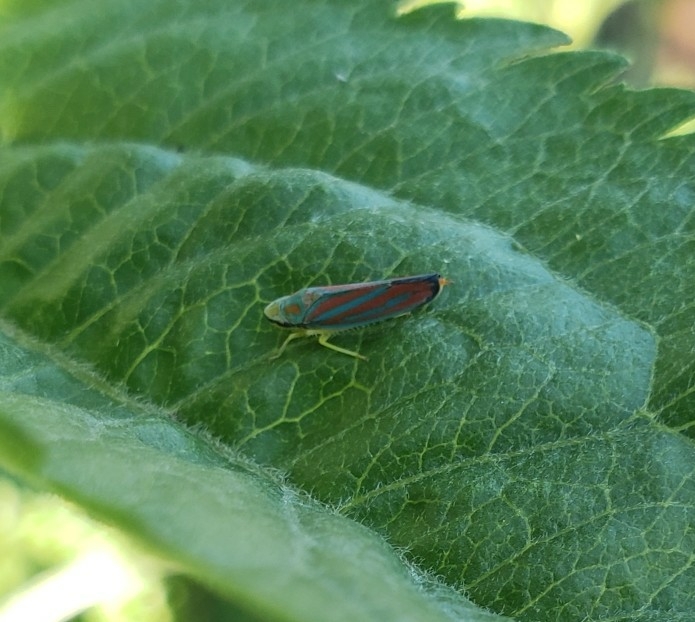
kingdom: Animalia
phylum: Arthropoda
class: Insecta
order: Hemiptera
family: Cicadellidae
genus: Graphocephala
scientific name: Graphocephala coccinea
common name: Candy-striped leafhopper
